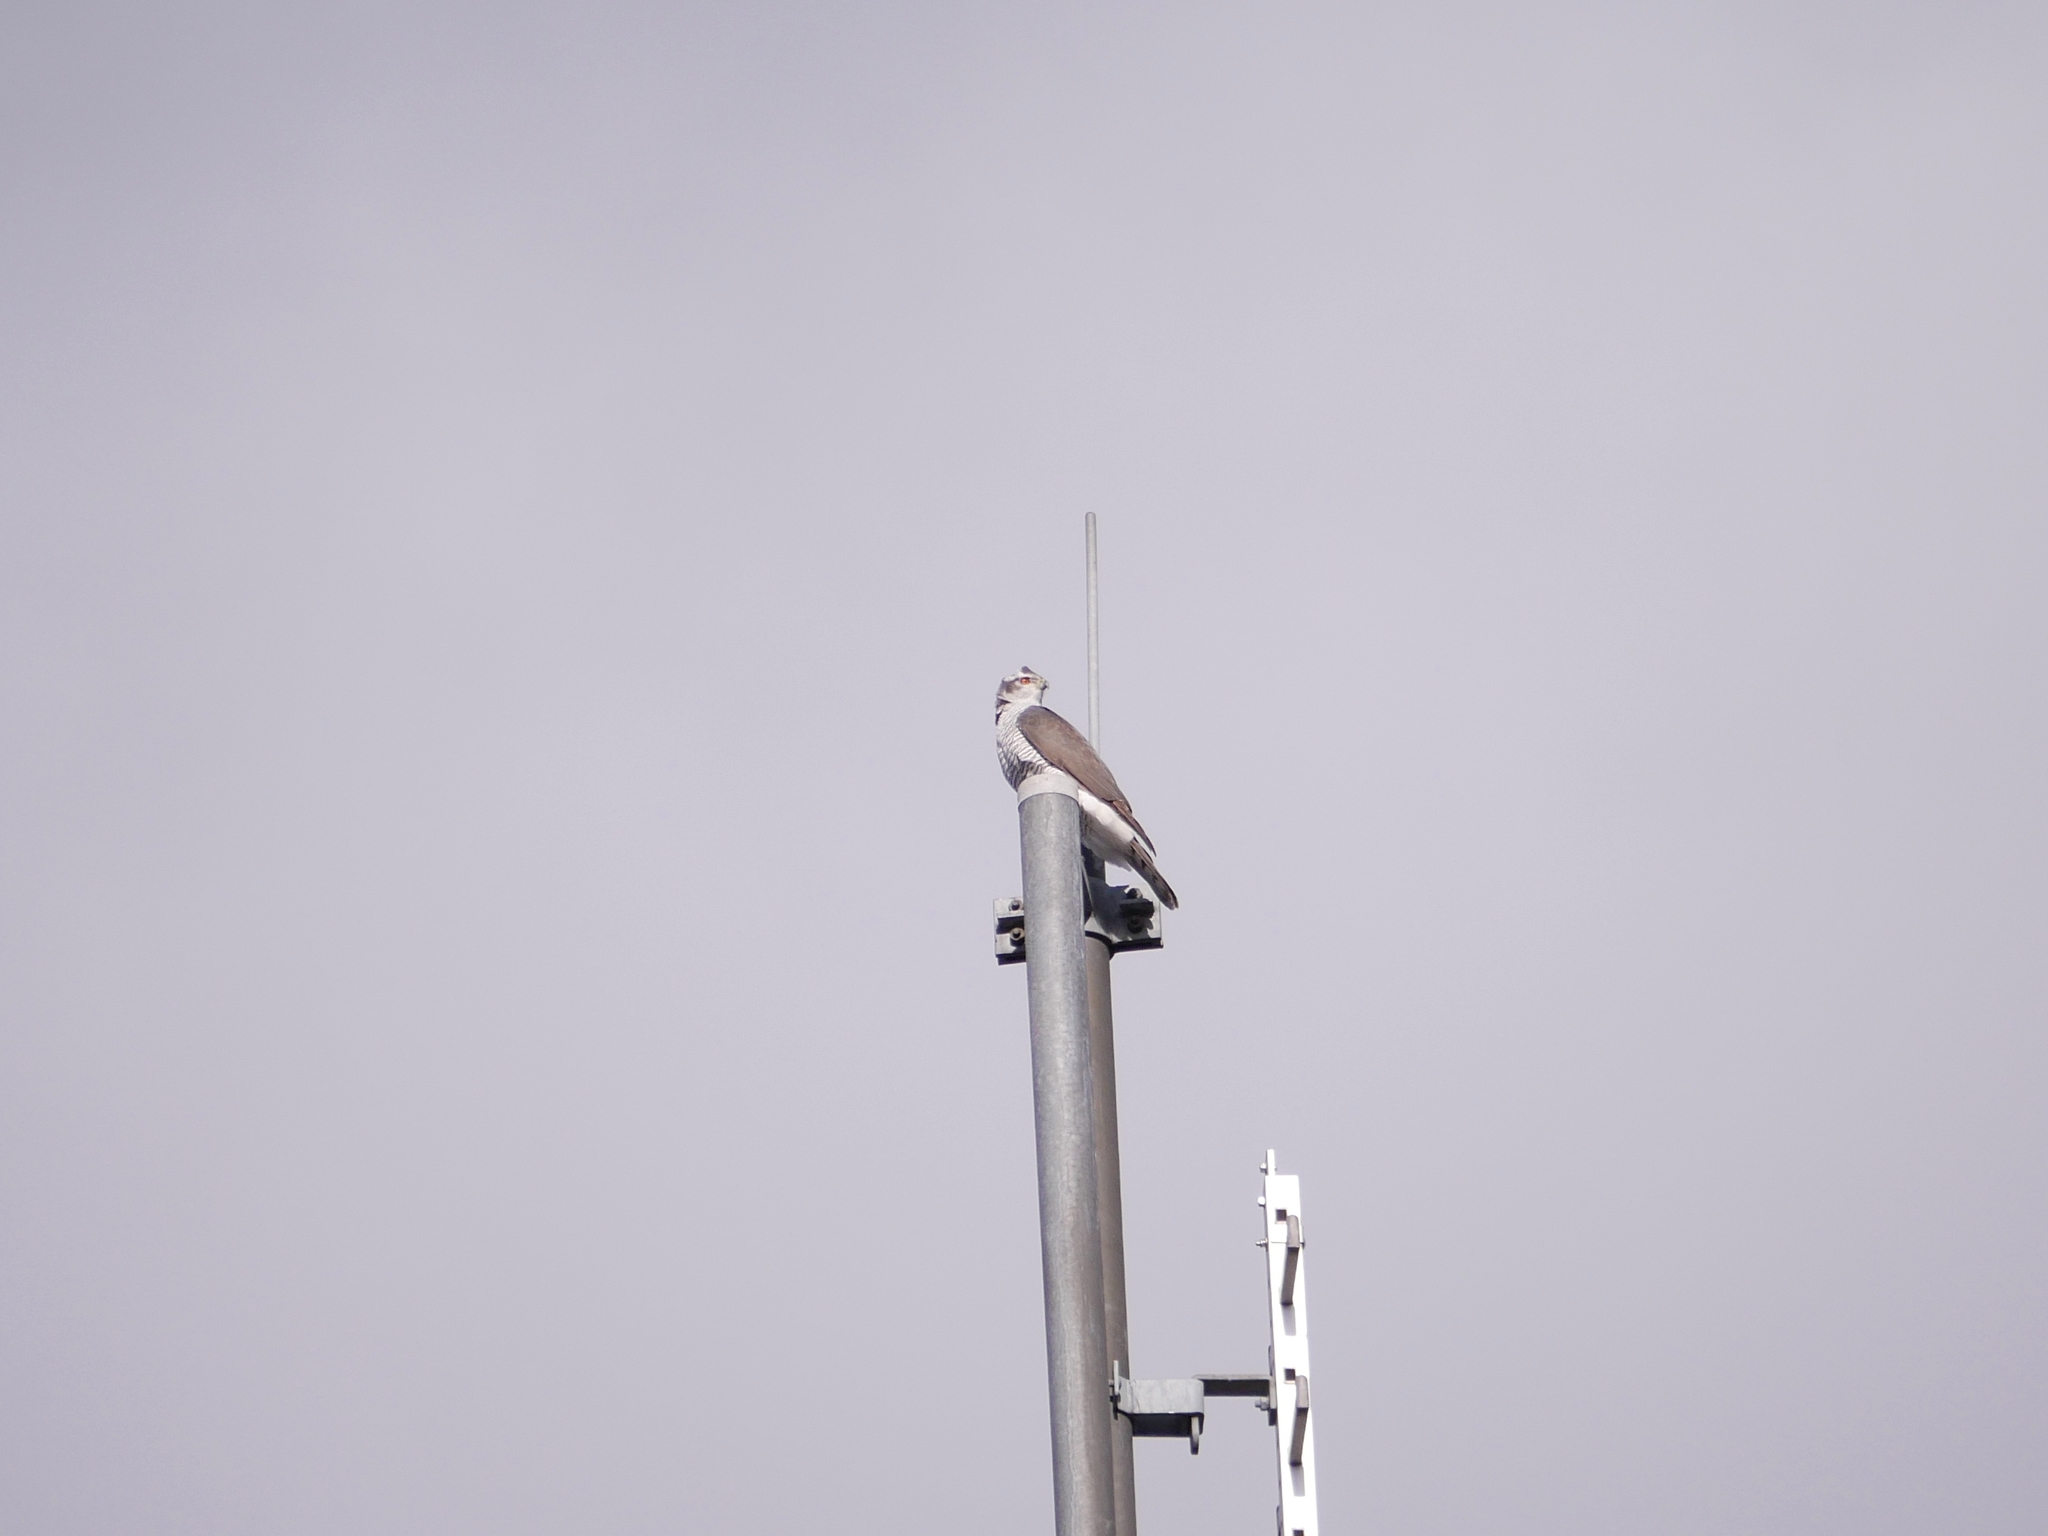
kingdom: Animalia
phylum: Chordata
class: Aves
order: Accipitriformes
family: Accipitridae
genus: Accipiter
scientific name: Accipiter gentilis
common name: Northern goshawk
